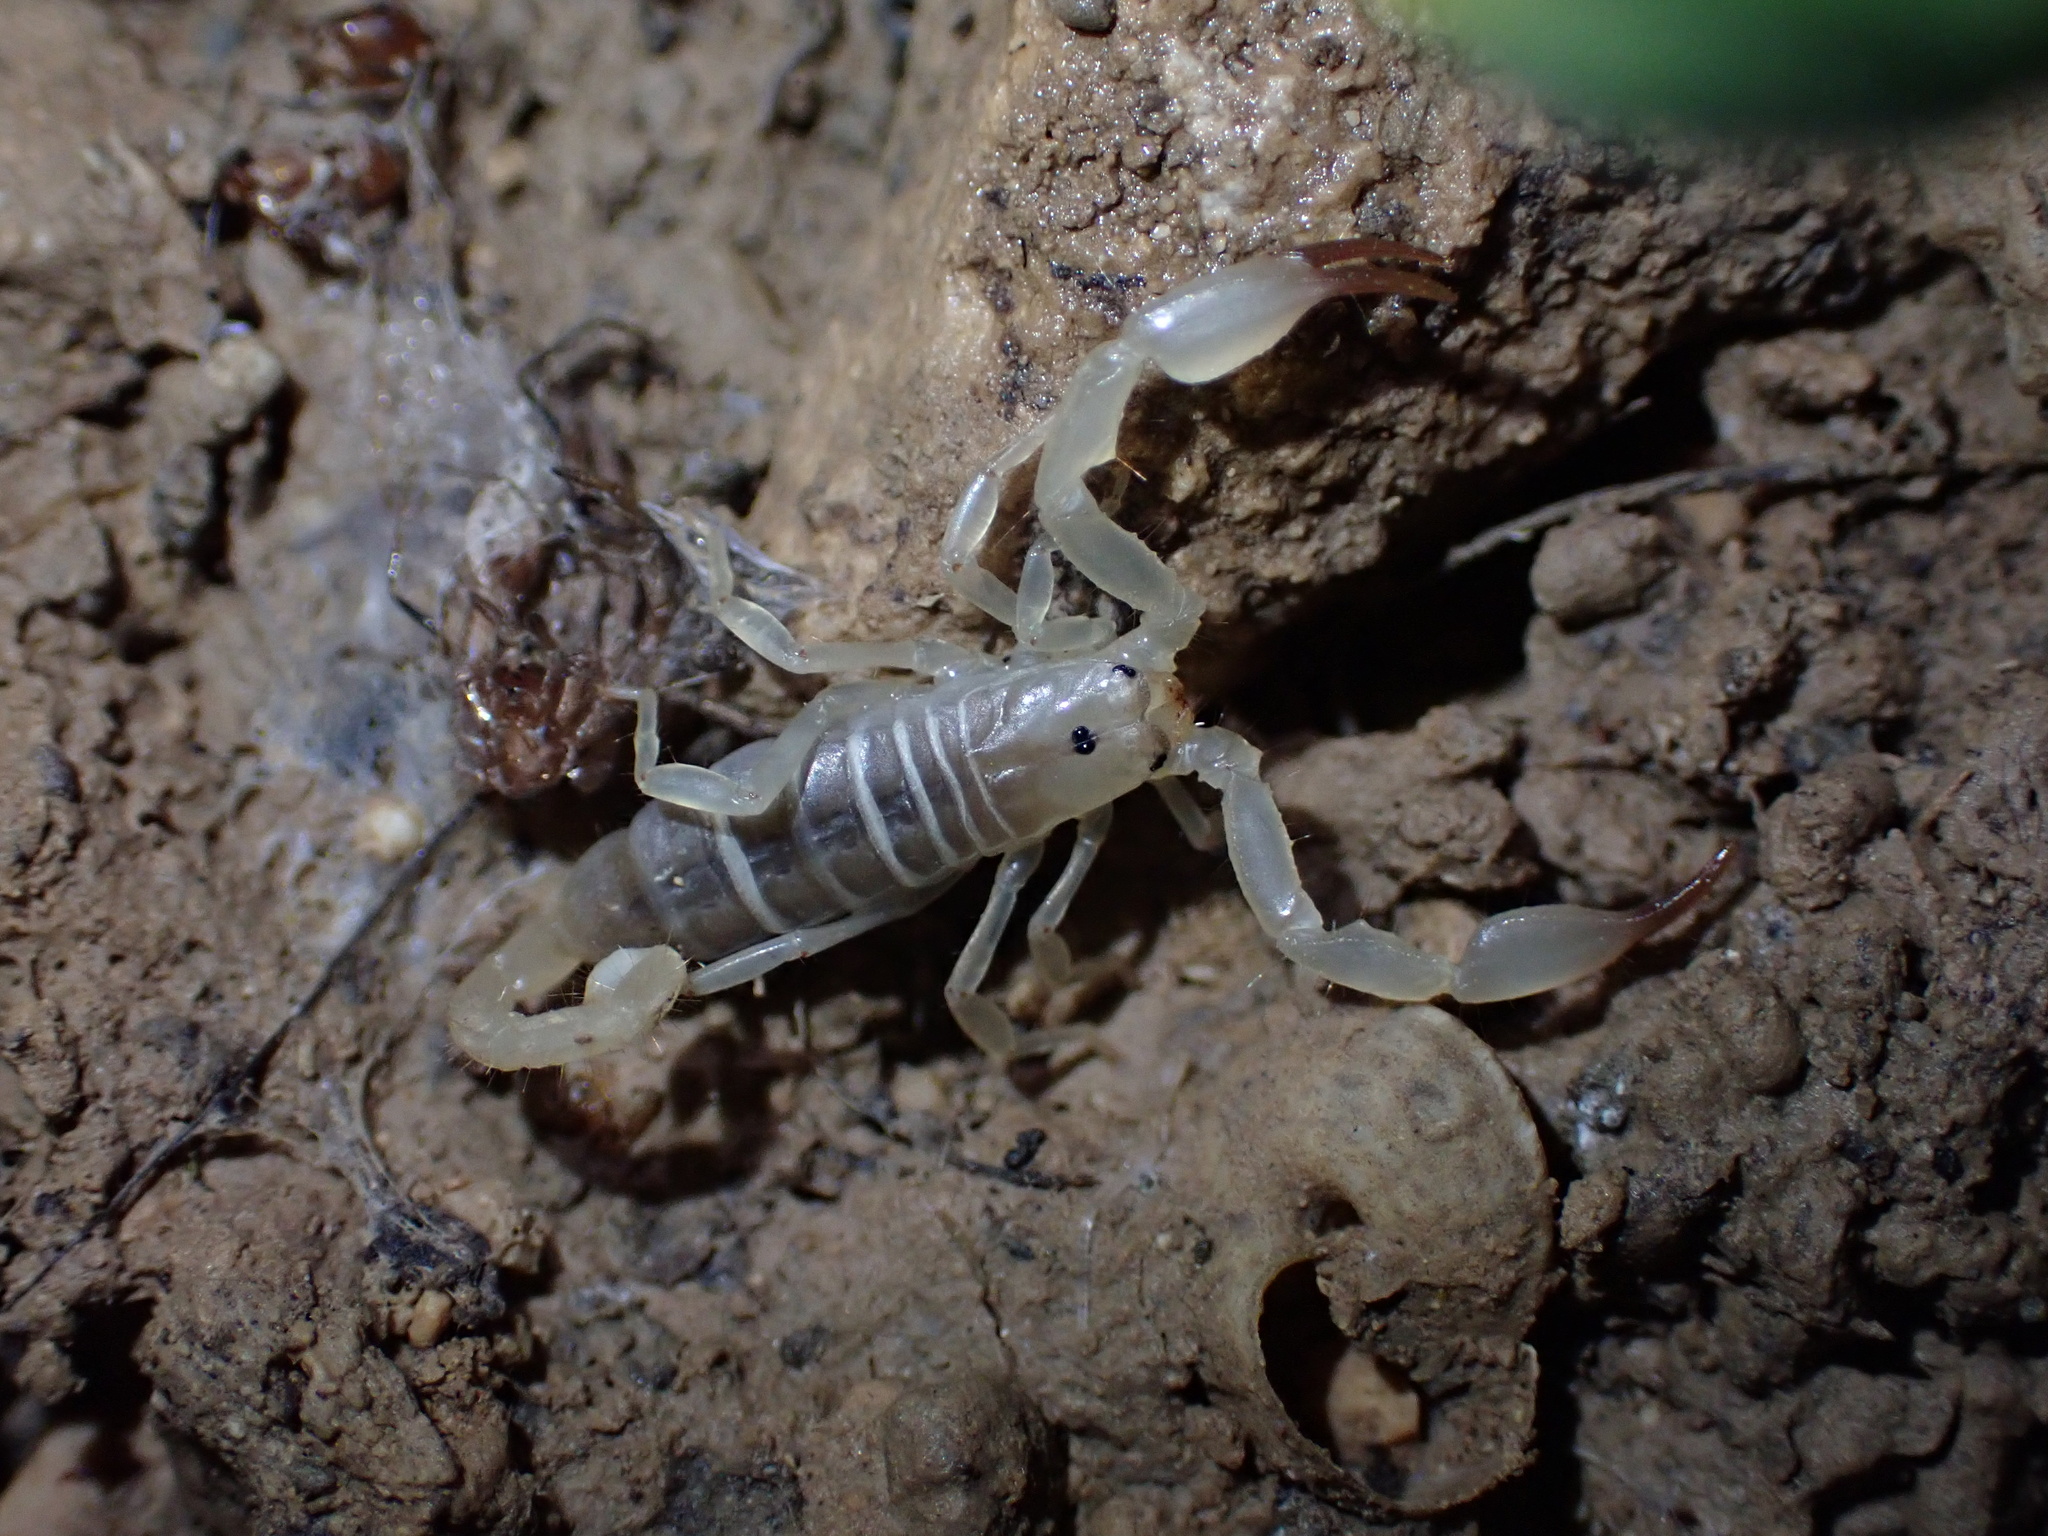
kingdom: Animalia
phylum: Arthropoda
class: Arachnida
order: Scorpiones
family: Hemiscorpiidae
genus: Hemiscorpius
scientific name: Hemiscorpius lepturus
